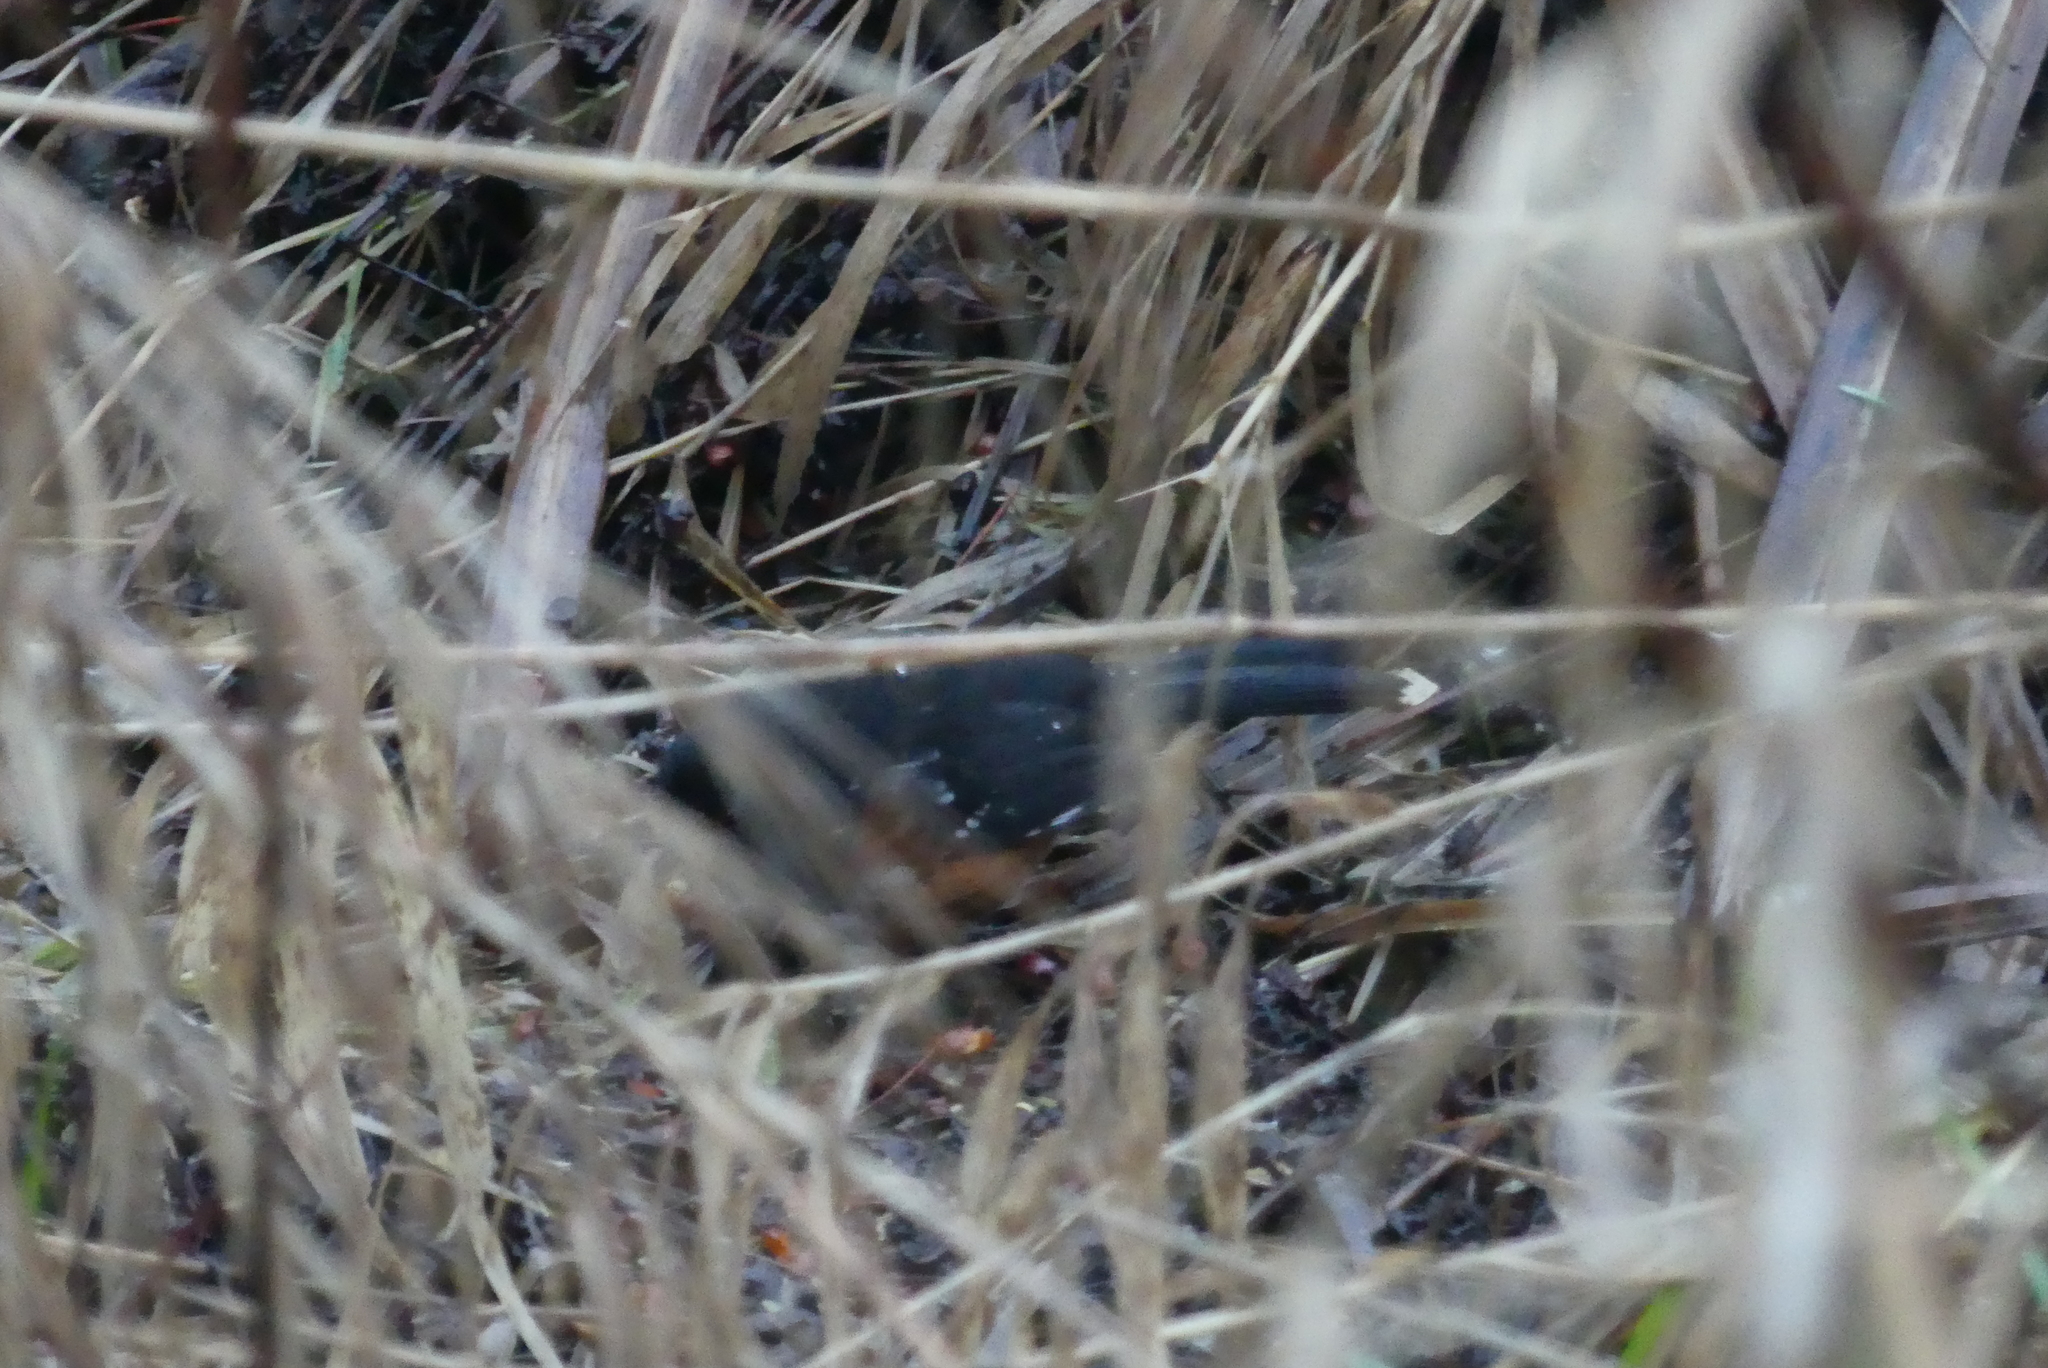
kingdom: Animalia
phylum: Chordata
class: Aves
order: Passeriformes
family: Passerellidae
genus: Pipilo
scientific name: Pipilo maculatus
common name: Spotted towhee
